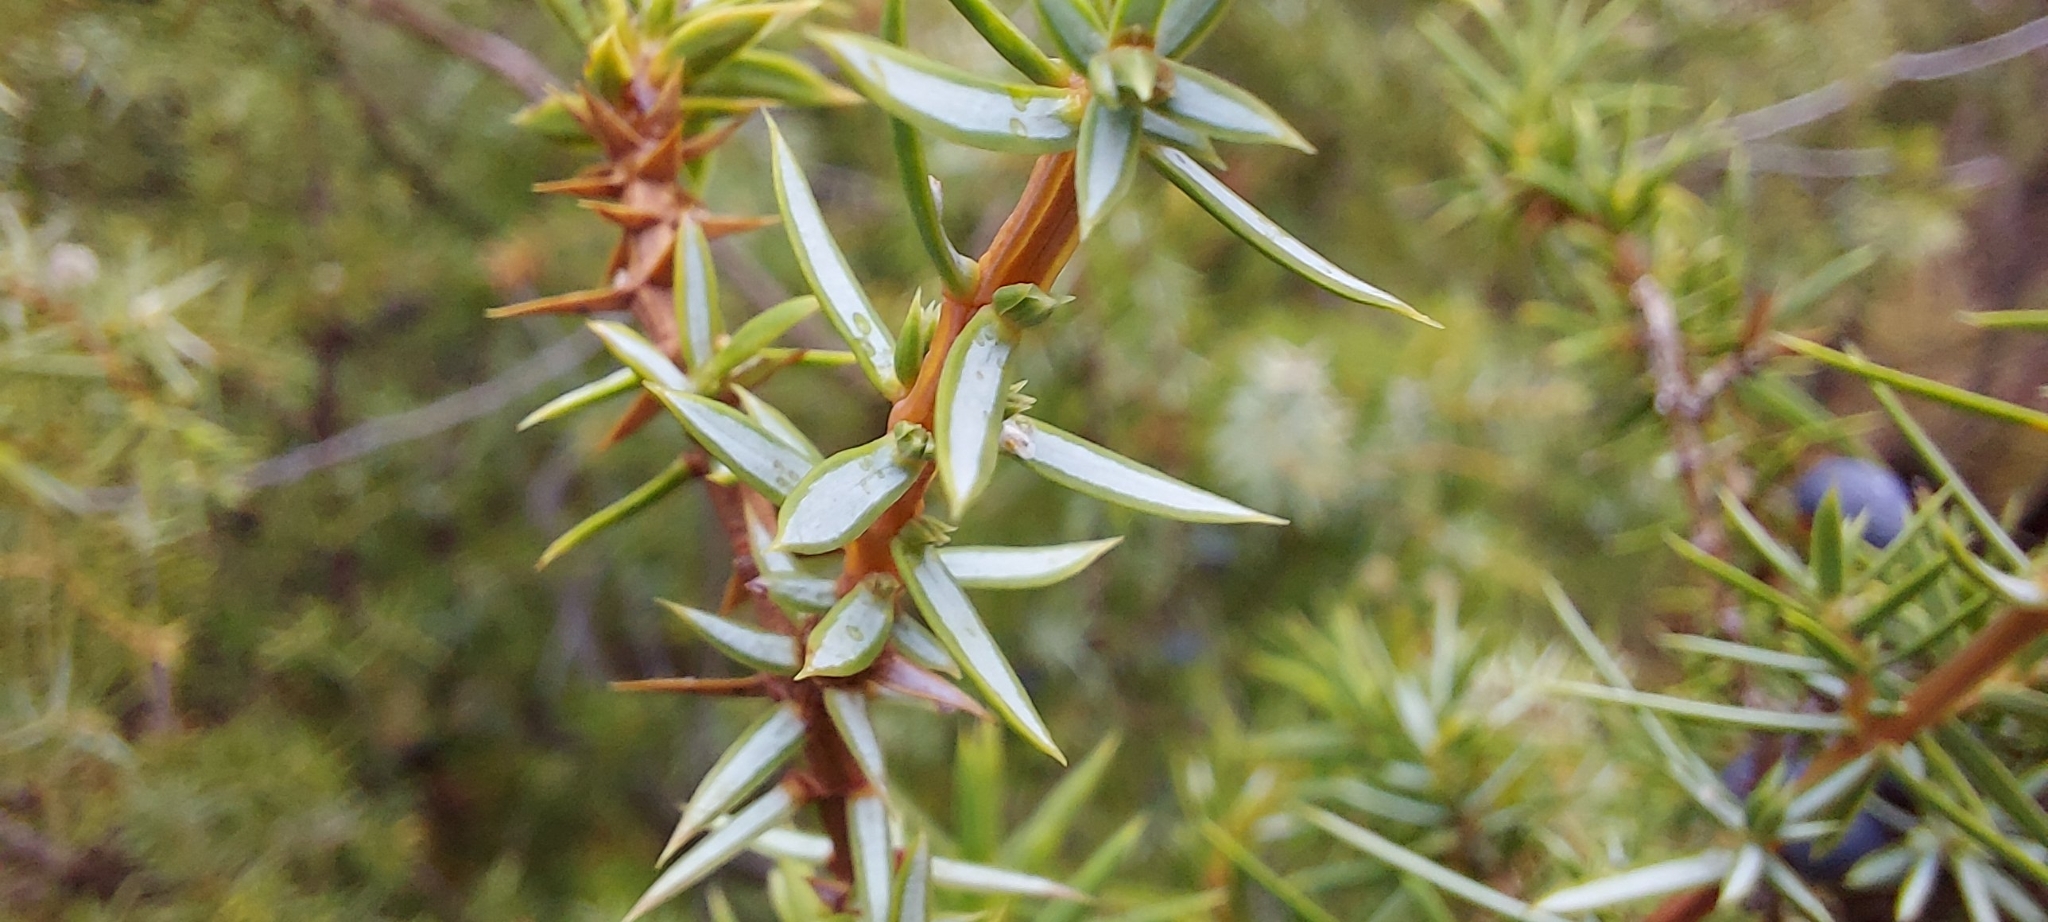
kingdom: Plantae
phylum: Tracheophyta
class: Pinopsida
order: Pinales
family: Cupressaceae
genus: Juniperus
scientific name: Juniperus communis
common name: Common juniper
